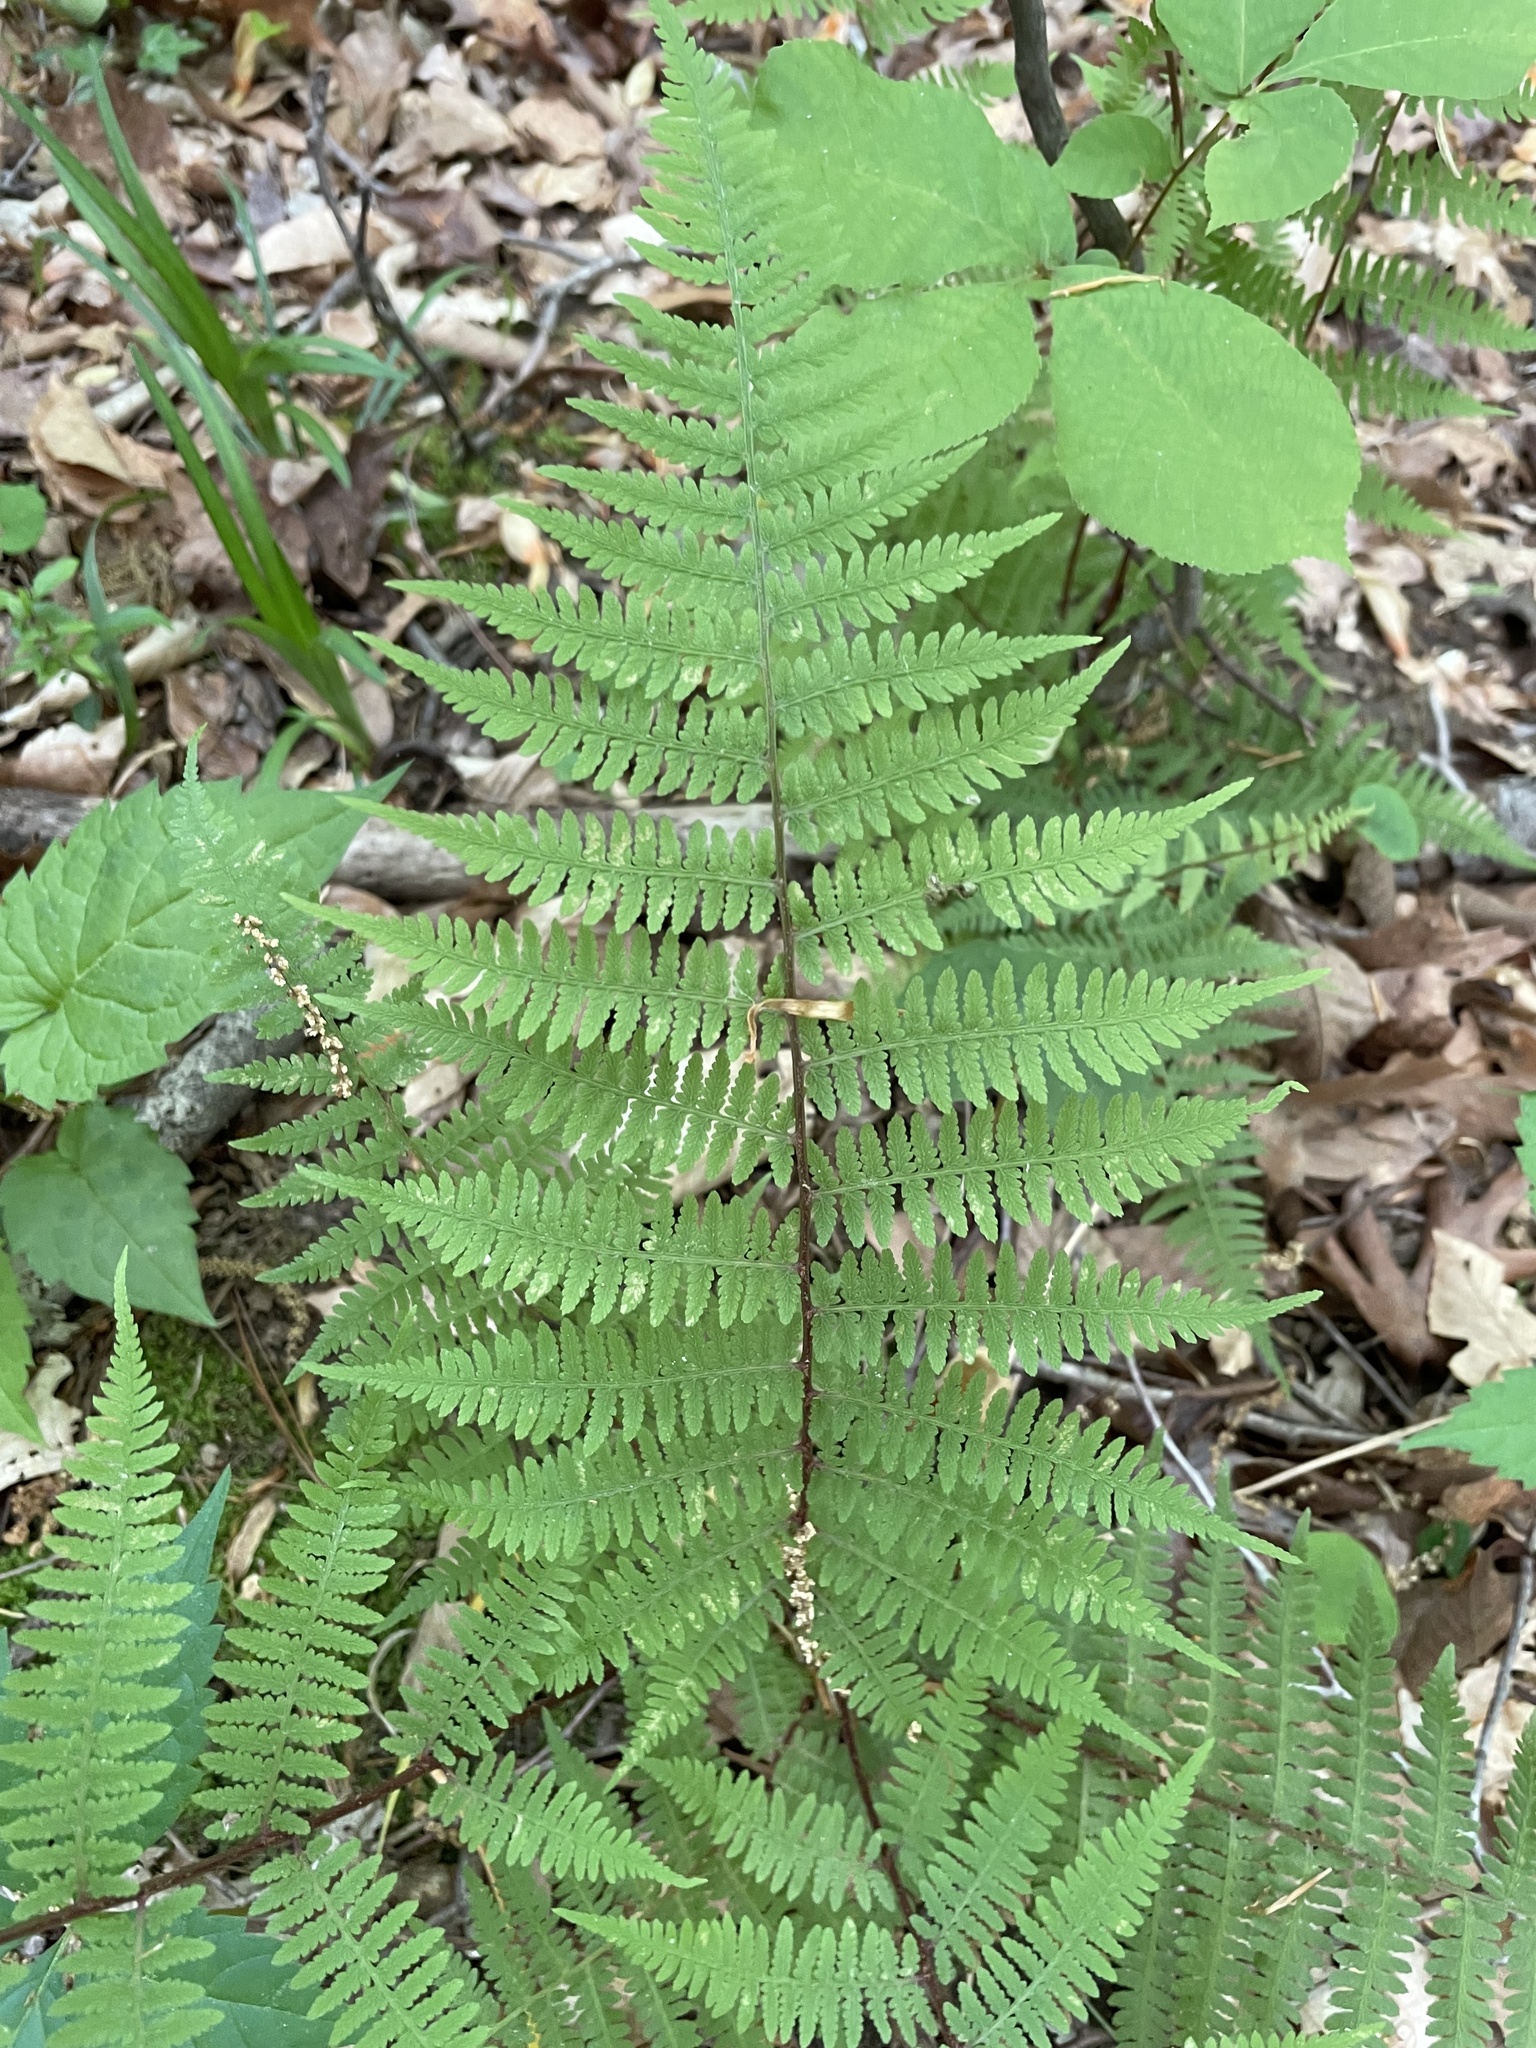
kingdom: Plantae
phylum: Tracheophyta
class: Polypodiopsida
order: Polypodiales
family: Athyriaceae
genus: Athyrium
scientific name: Athyrium asplenioides
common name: Southern lady fern
